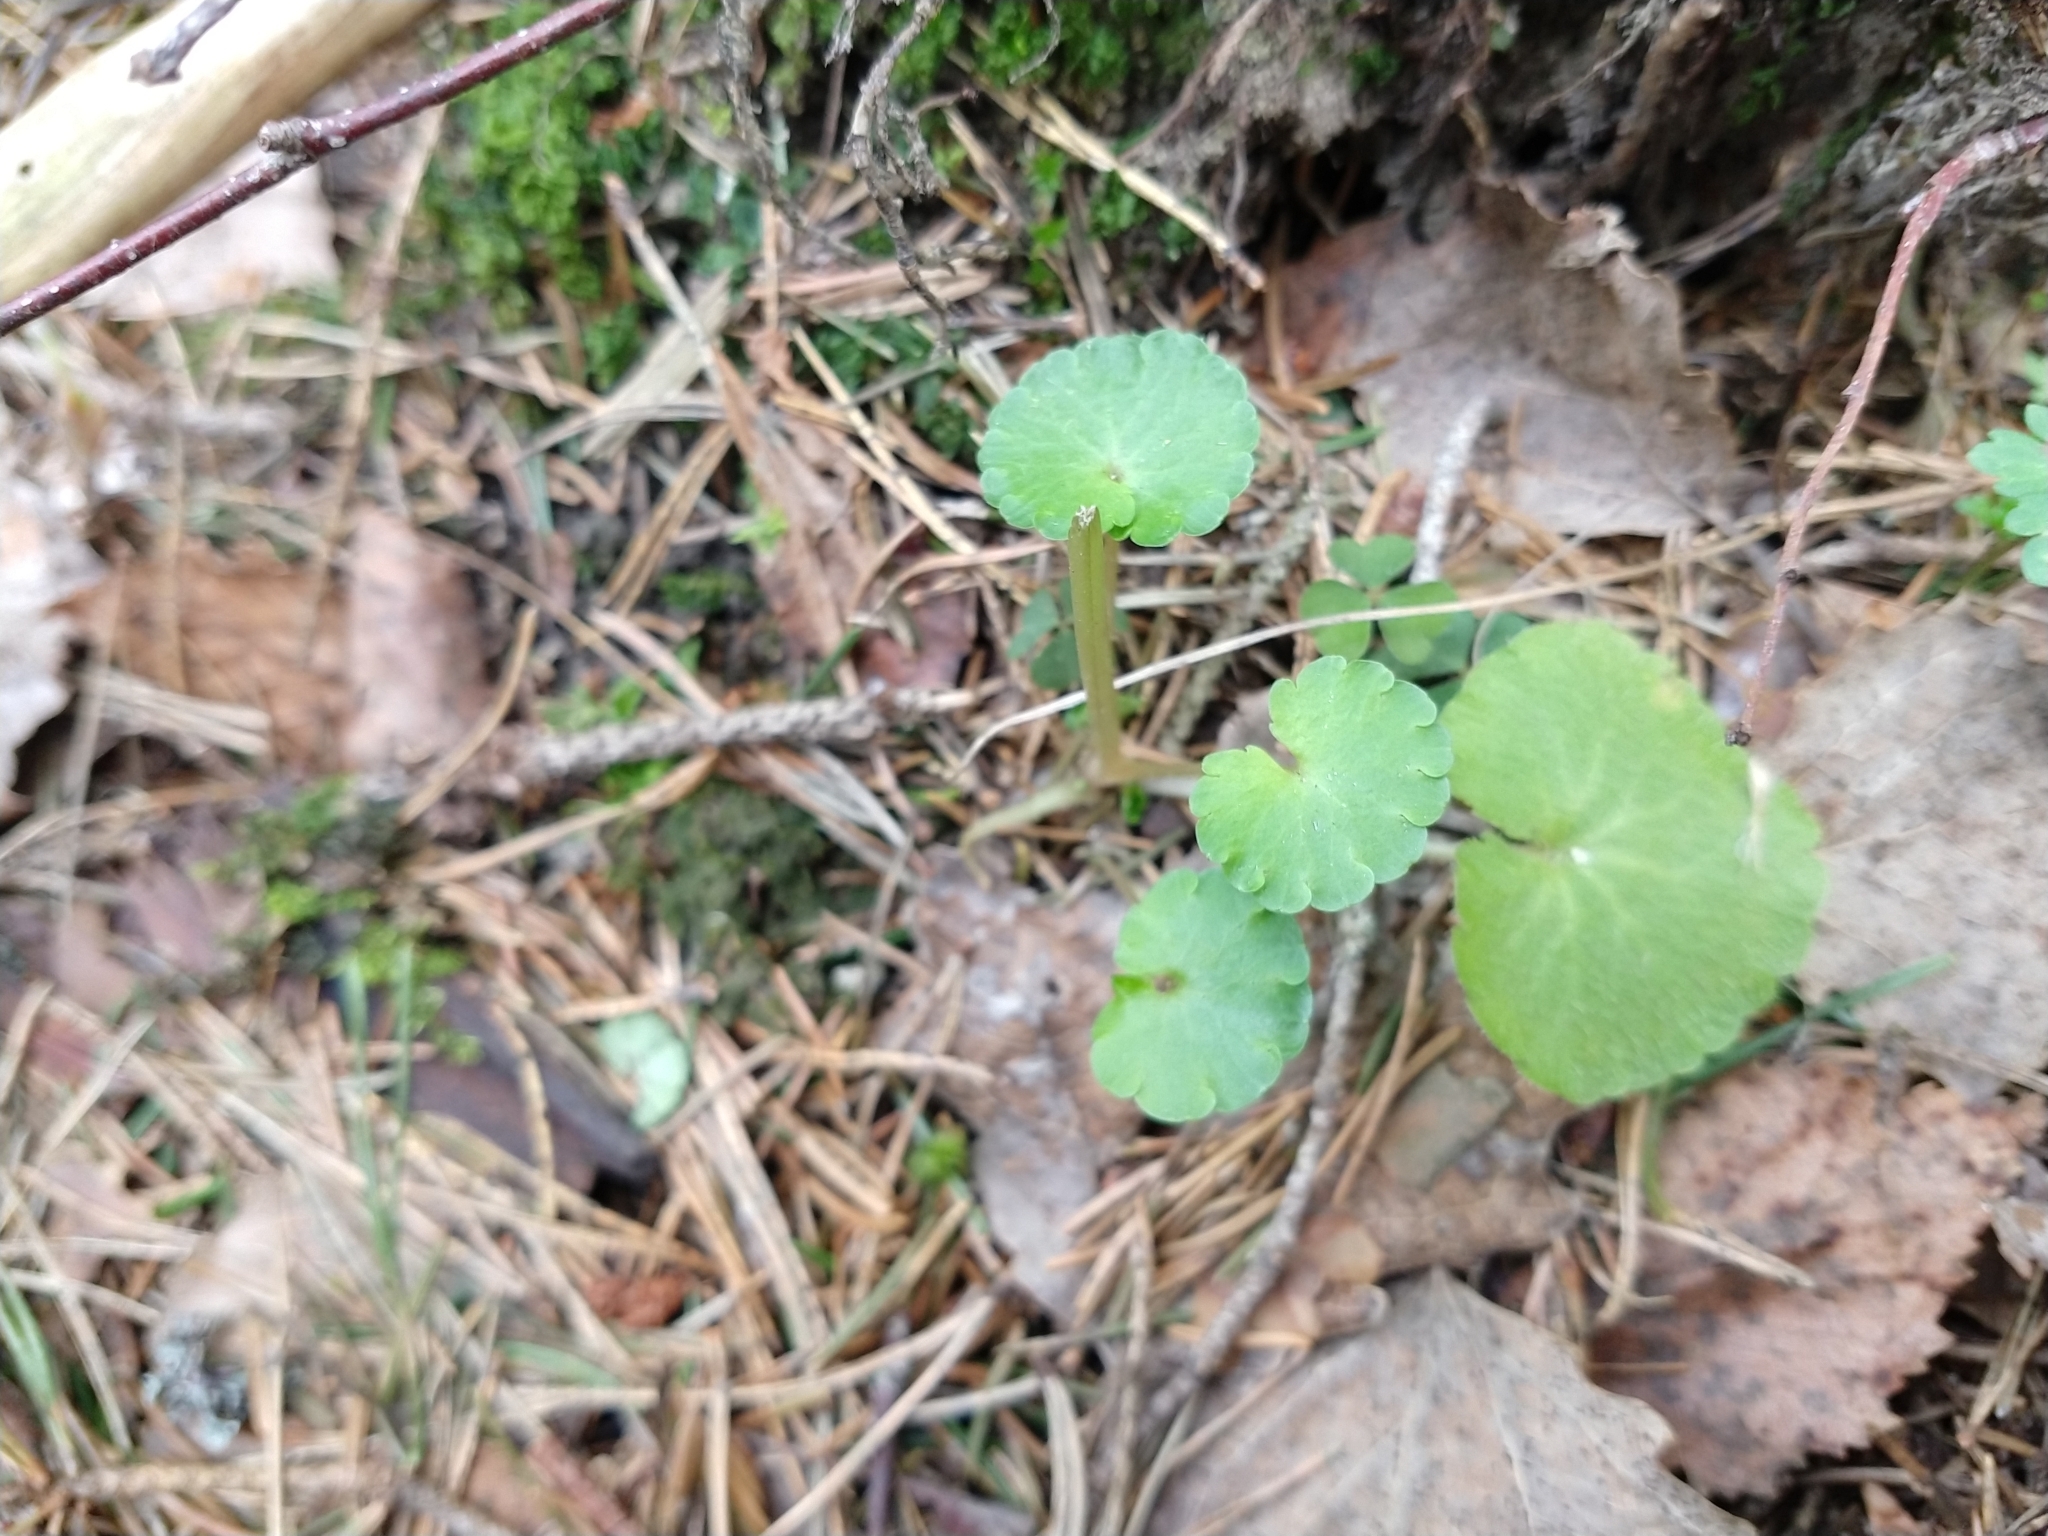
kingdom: Plantae
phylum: Tracheophyta
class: Magnoliopsida
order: Saxifragales
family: Saxifragaceae
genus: Chrysosplenium
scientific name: Chrysosplenium alternifolium
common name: Alternate-leaved golden-saxifrage
